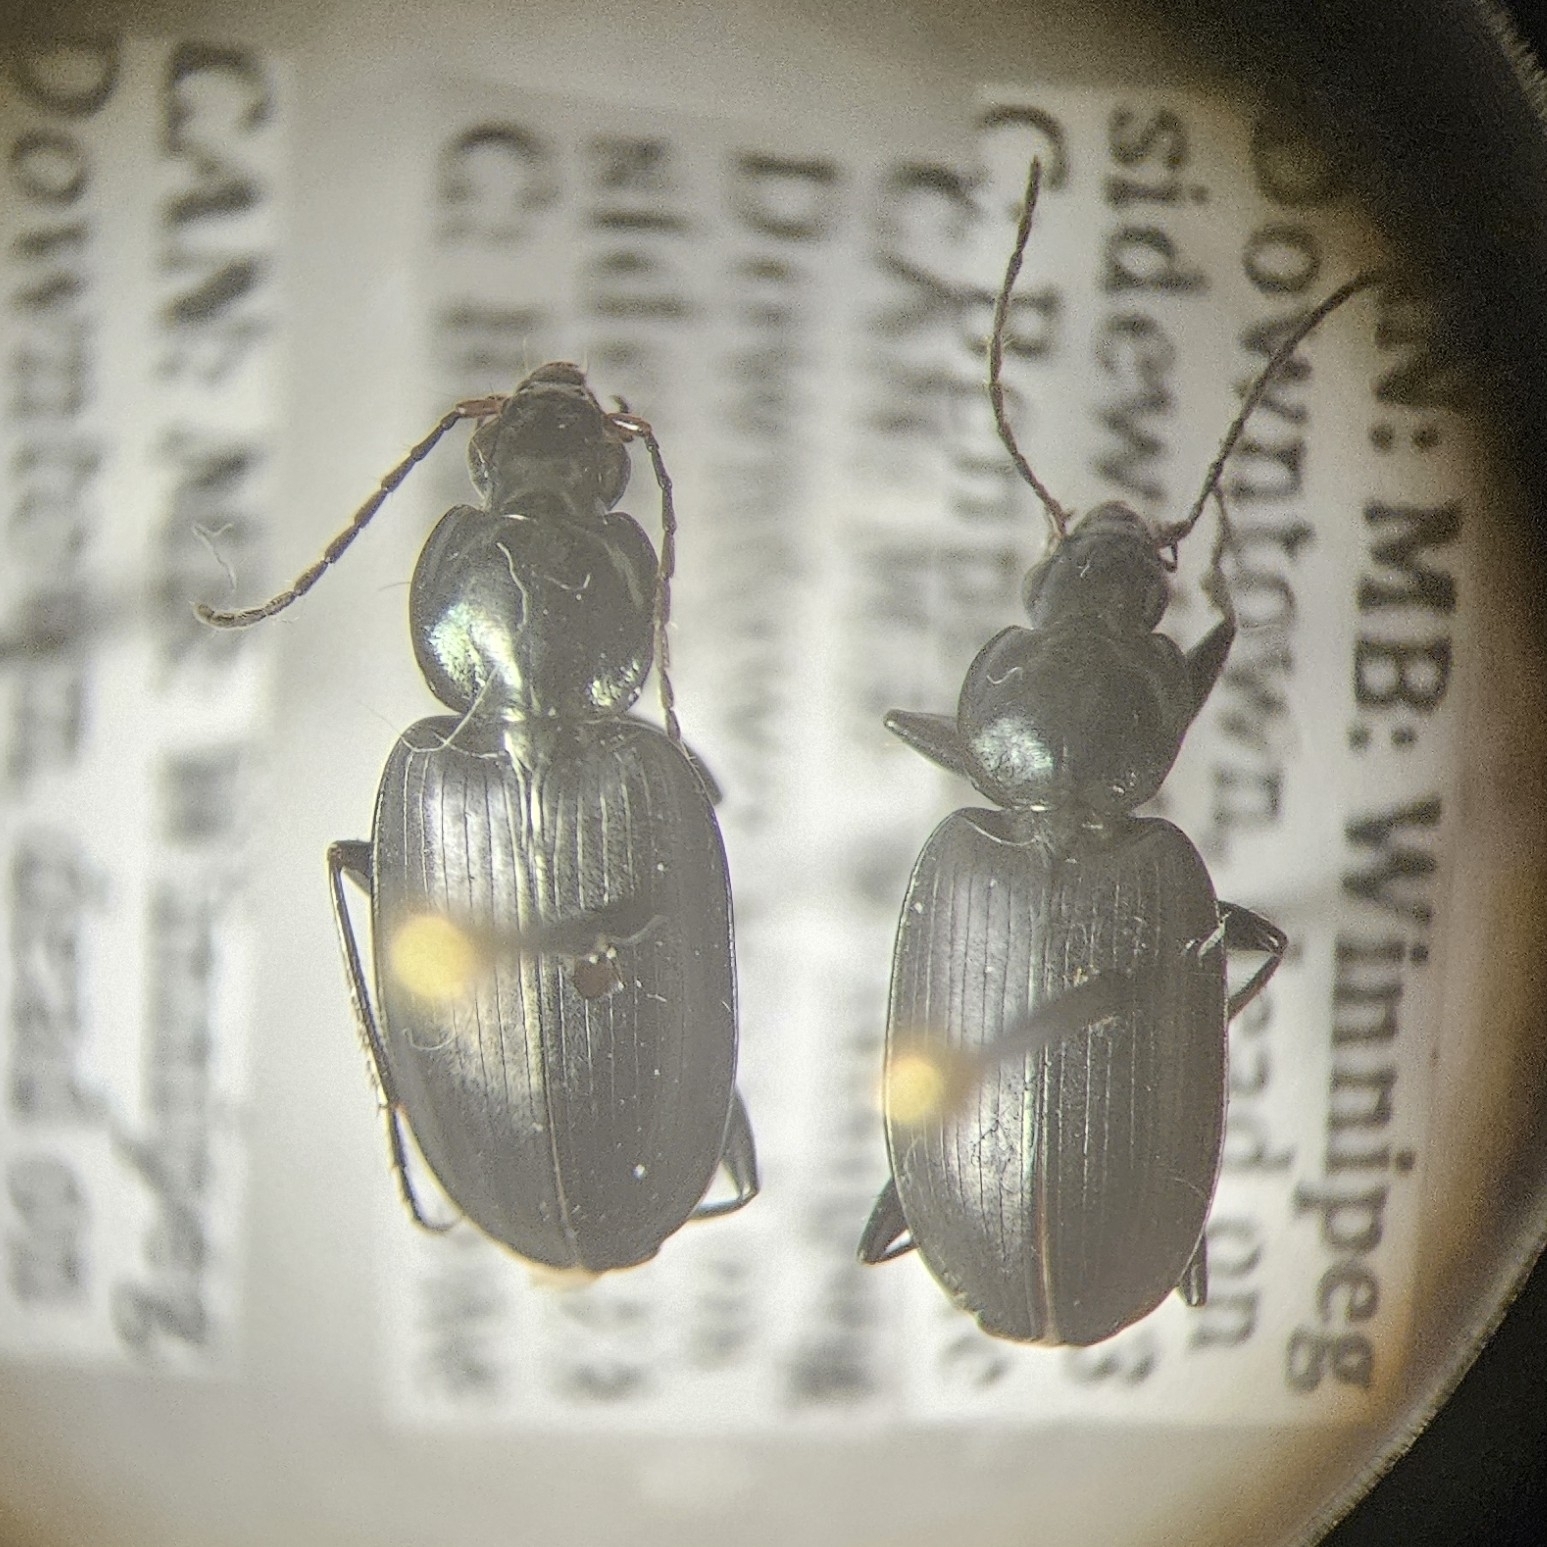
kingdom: Animalia
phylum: Arthropoda
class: Insecta
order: Coleoptera
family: Carabidae
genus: Agonum
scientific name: Agonum placidum
